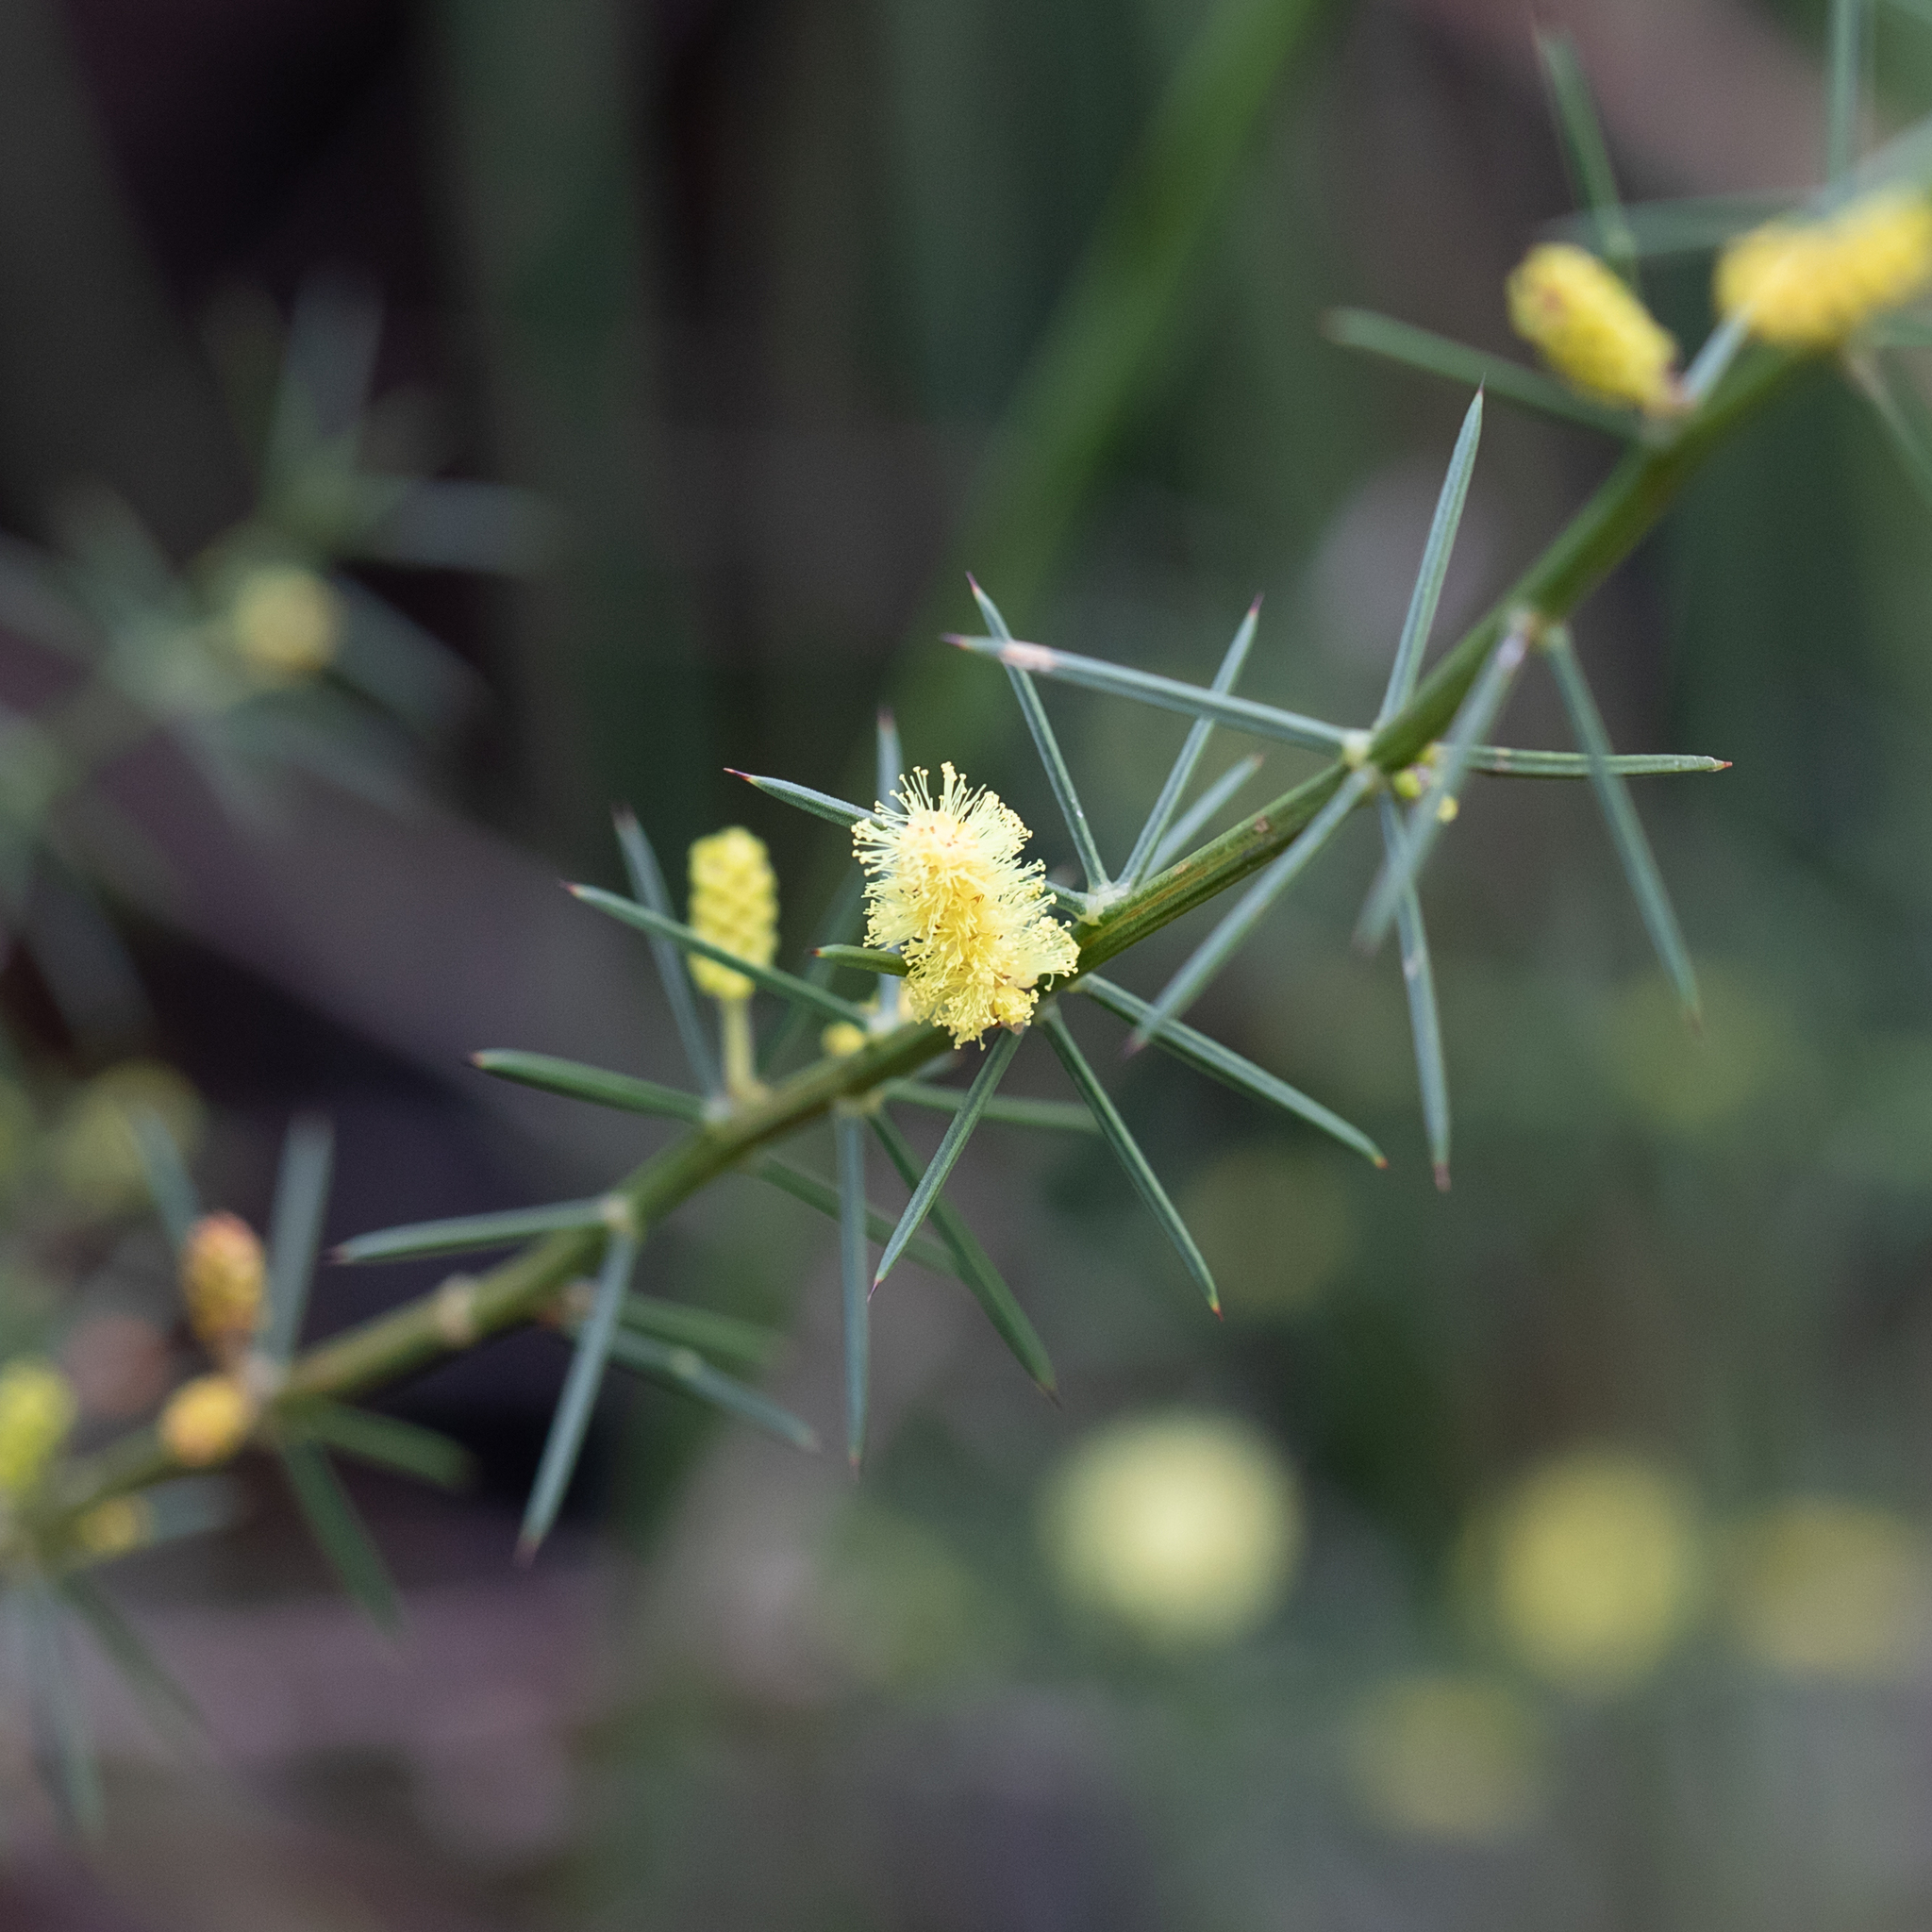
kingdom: Plantae
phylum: Tracheophyta
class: Magnoliopsida
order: Fabales
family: Fabaceae
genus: Acacia
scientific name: Acacia verticillata
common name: Prickly moses
